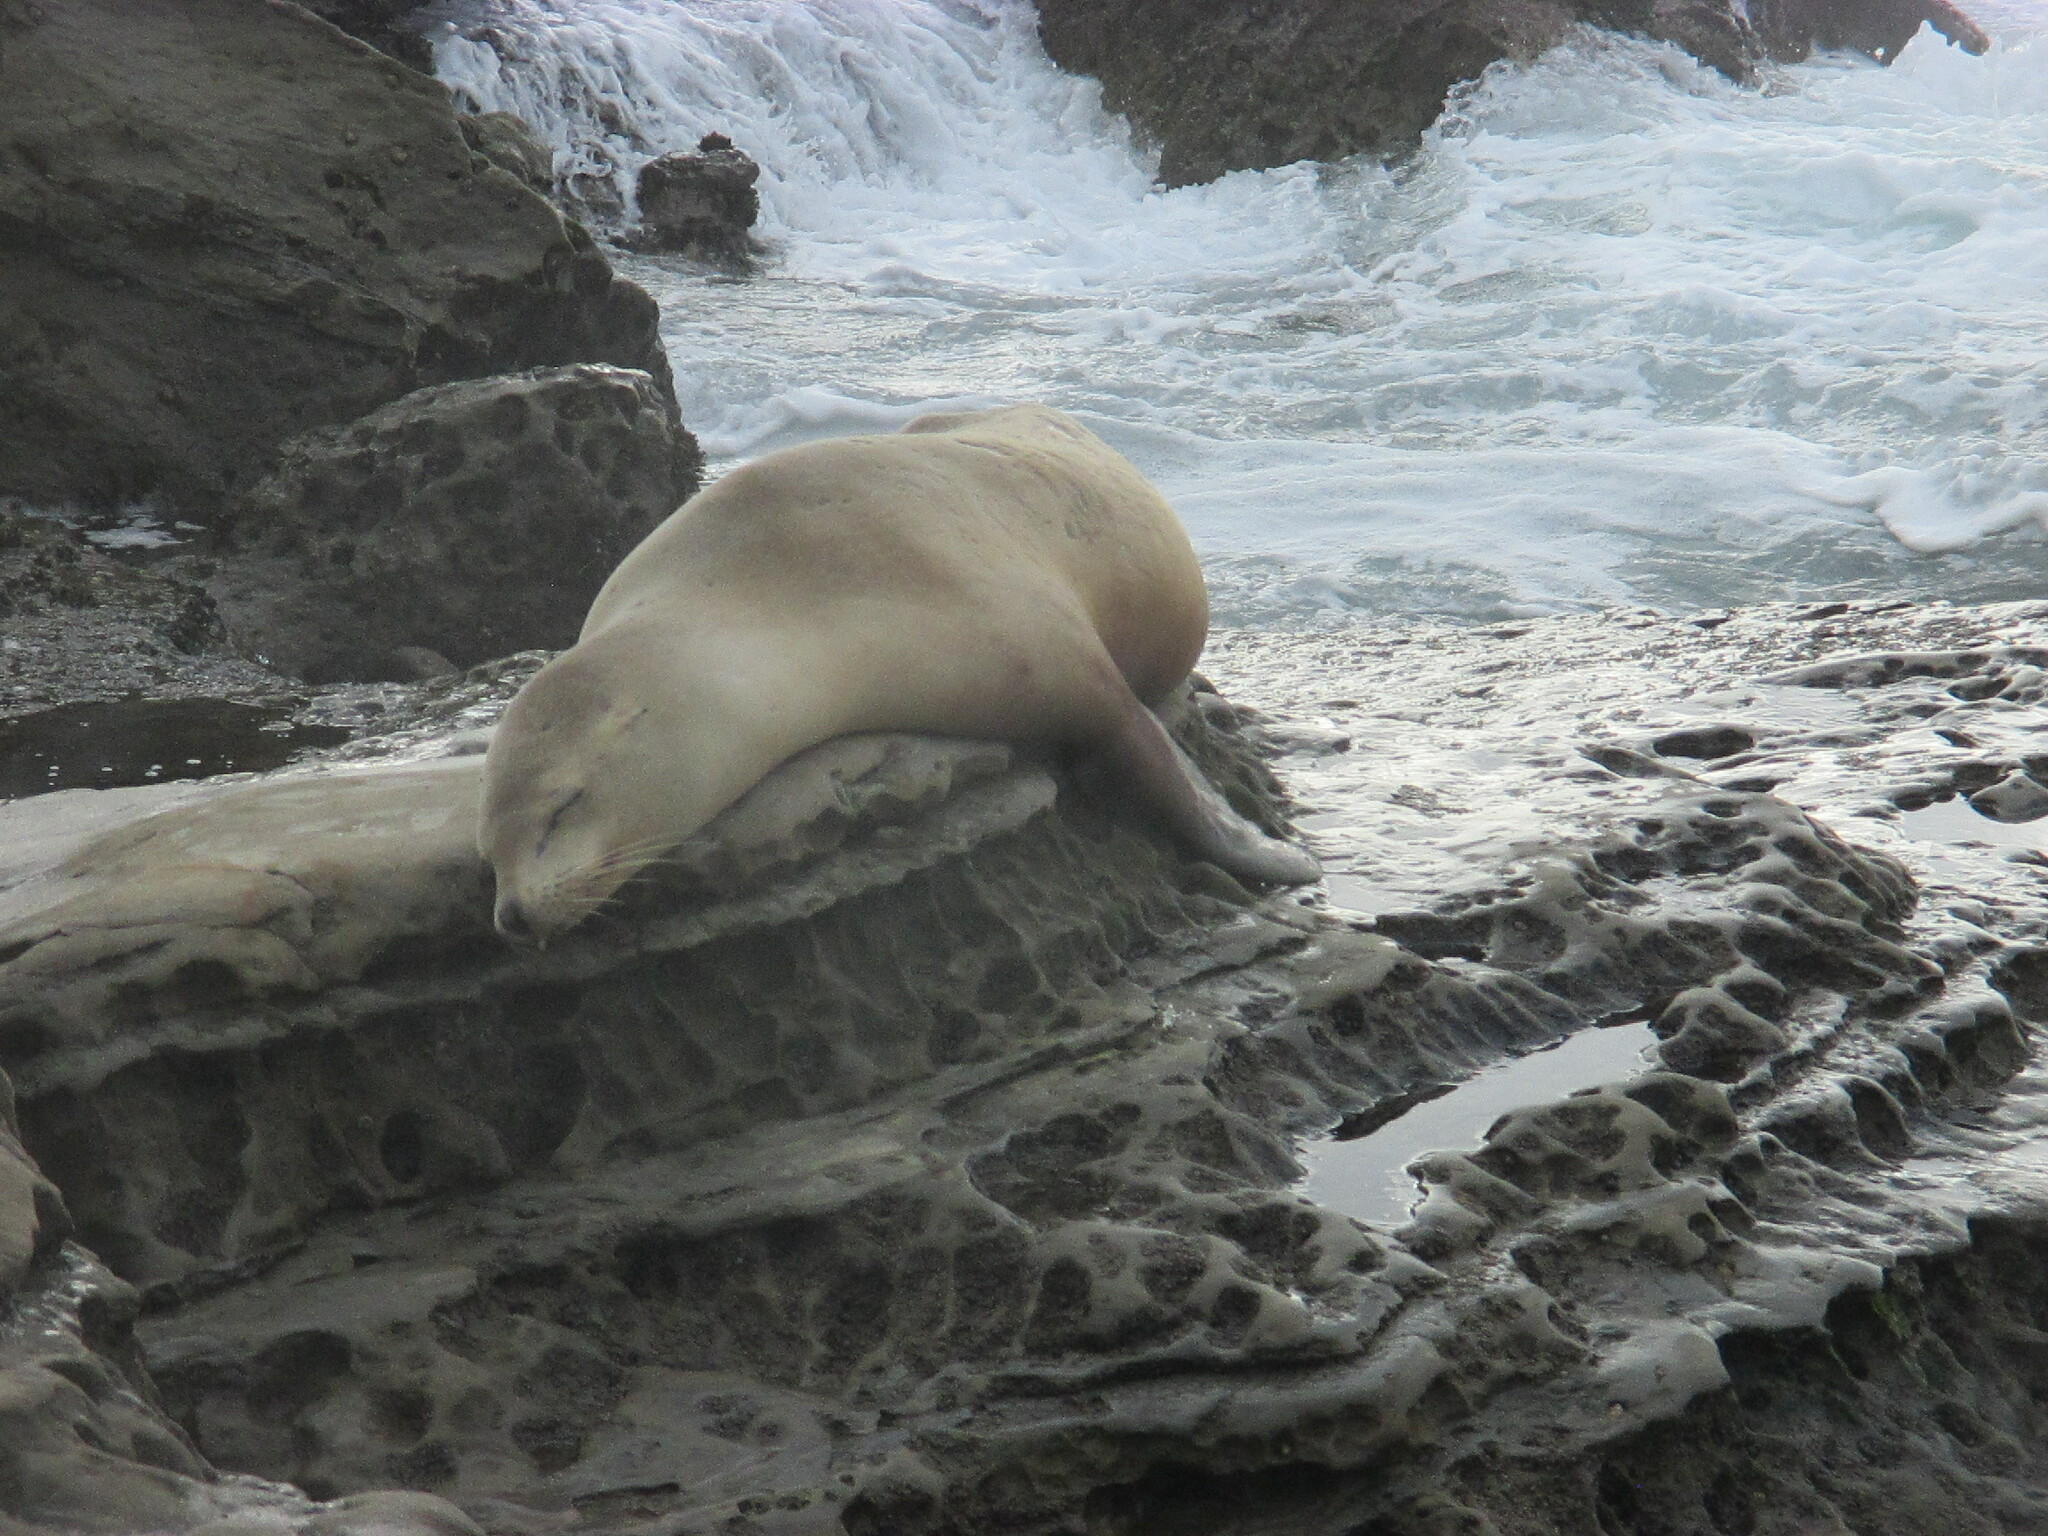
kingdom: Animalia
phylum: Chordata
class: Mammalia
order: Carnivora
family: Otariidae
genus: Zalophus
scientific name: Zalophus californianus
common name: California sea lion
